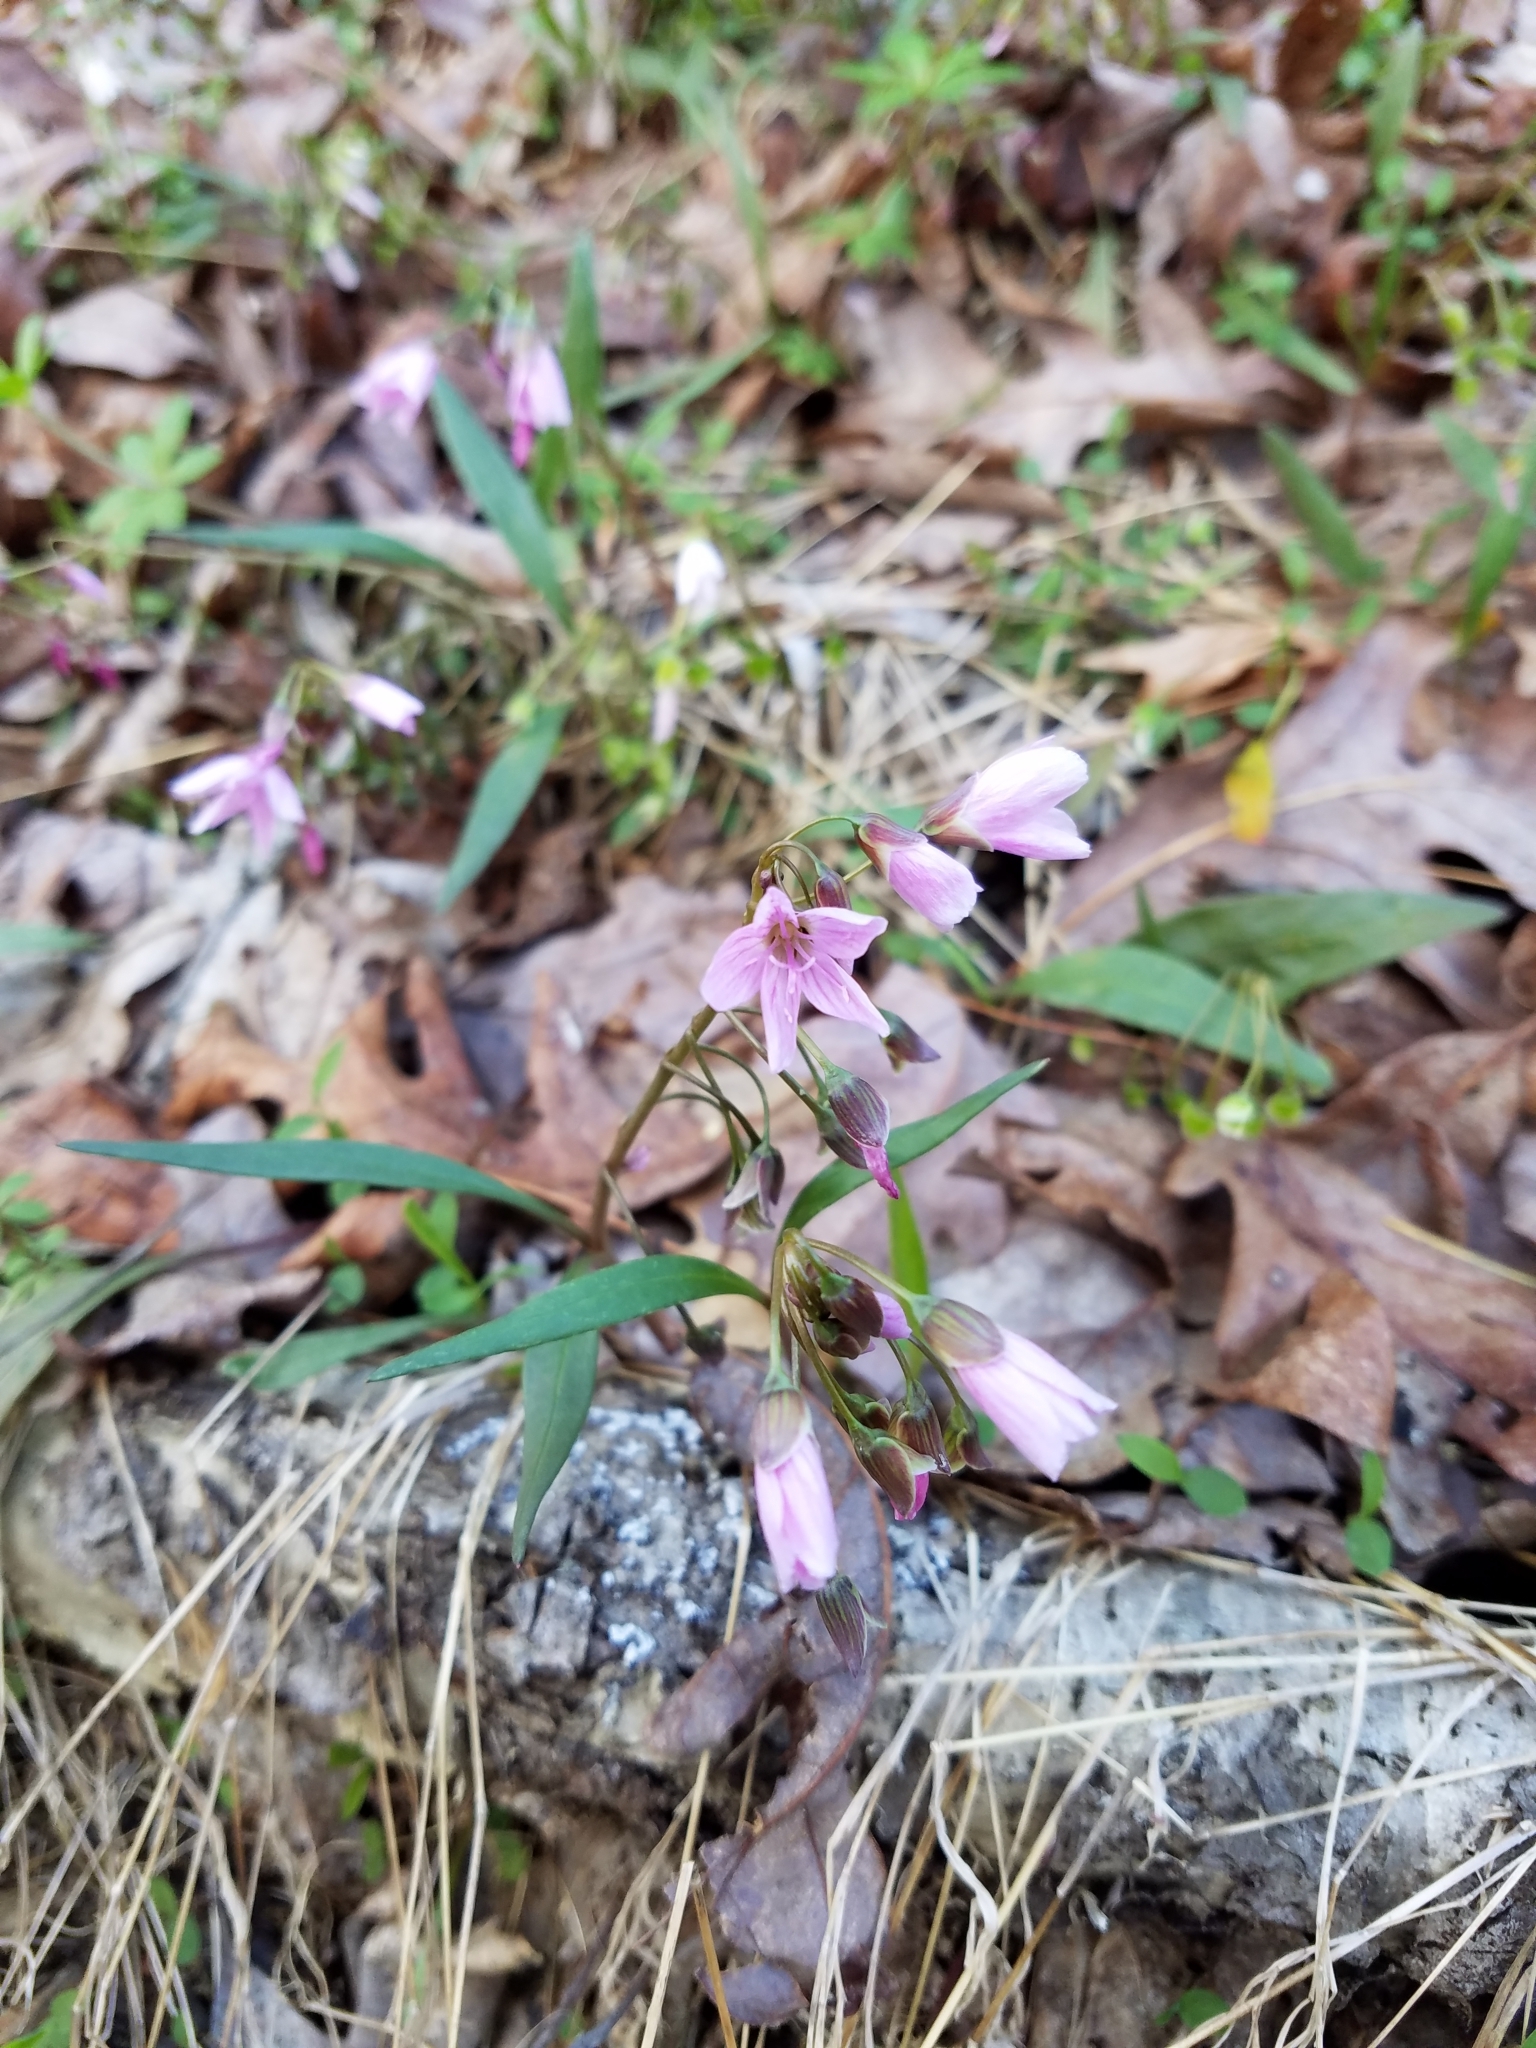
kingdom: Plantae
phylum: Tracheophyta
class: Magnoliopsida
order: Caryophyllales
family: Montiaceae
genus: Claytonia
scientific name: Claytonia virginica
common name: Virginia springbeauty
